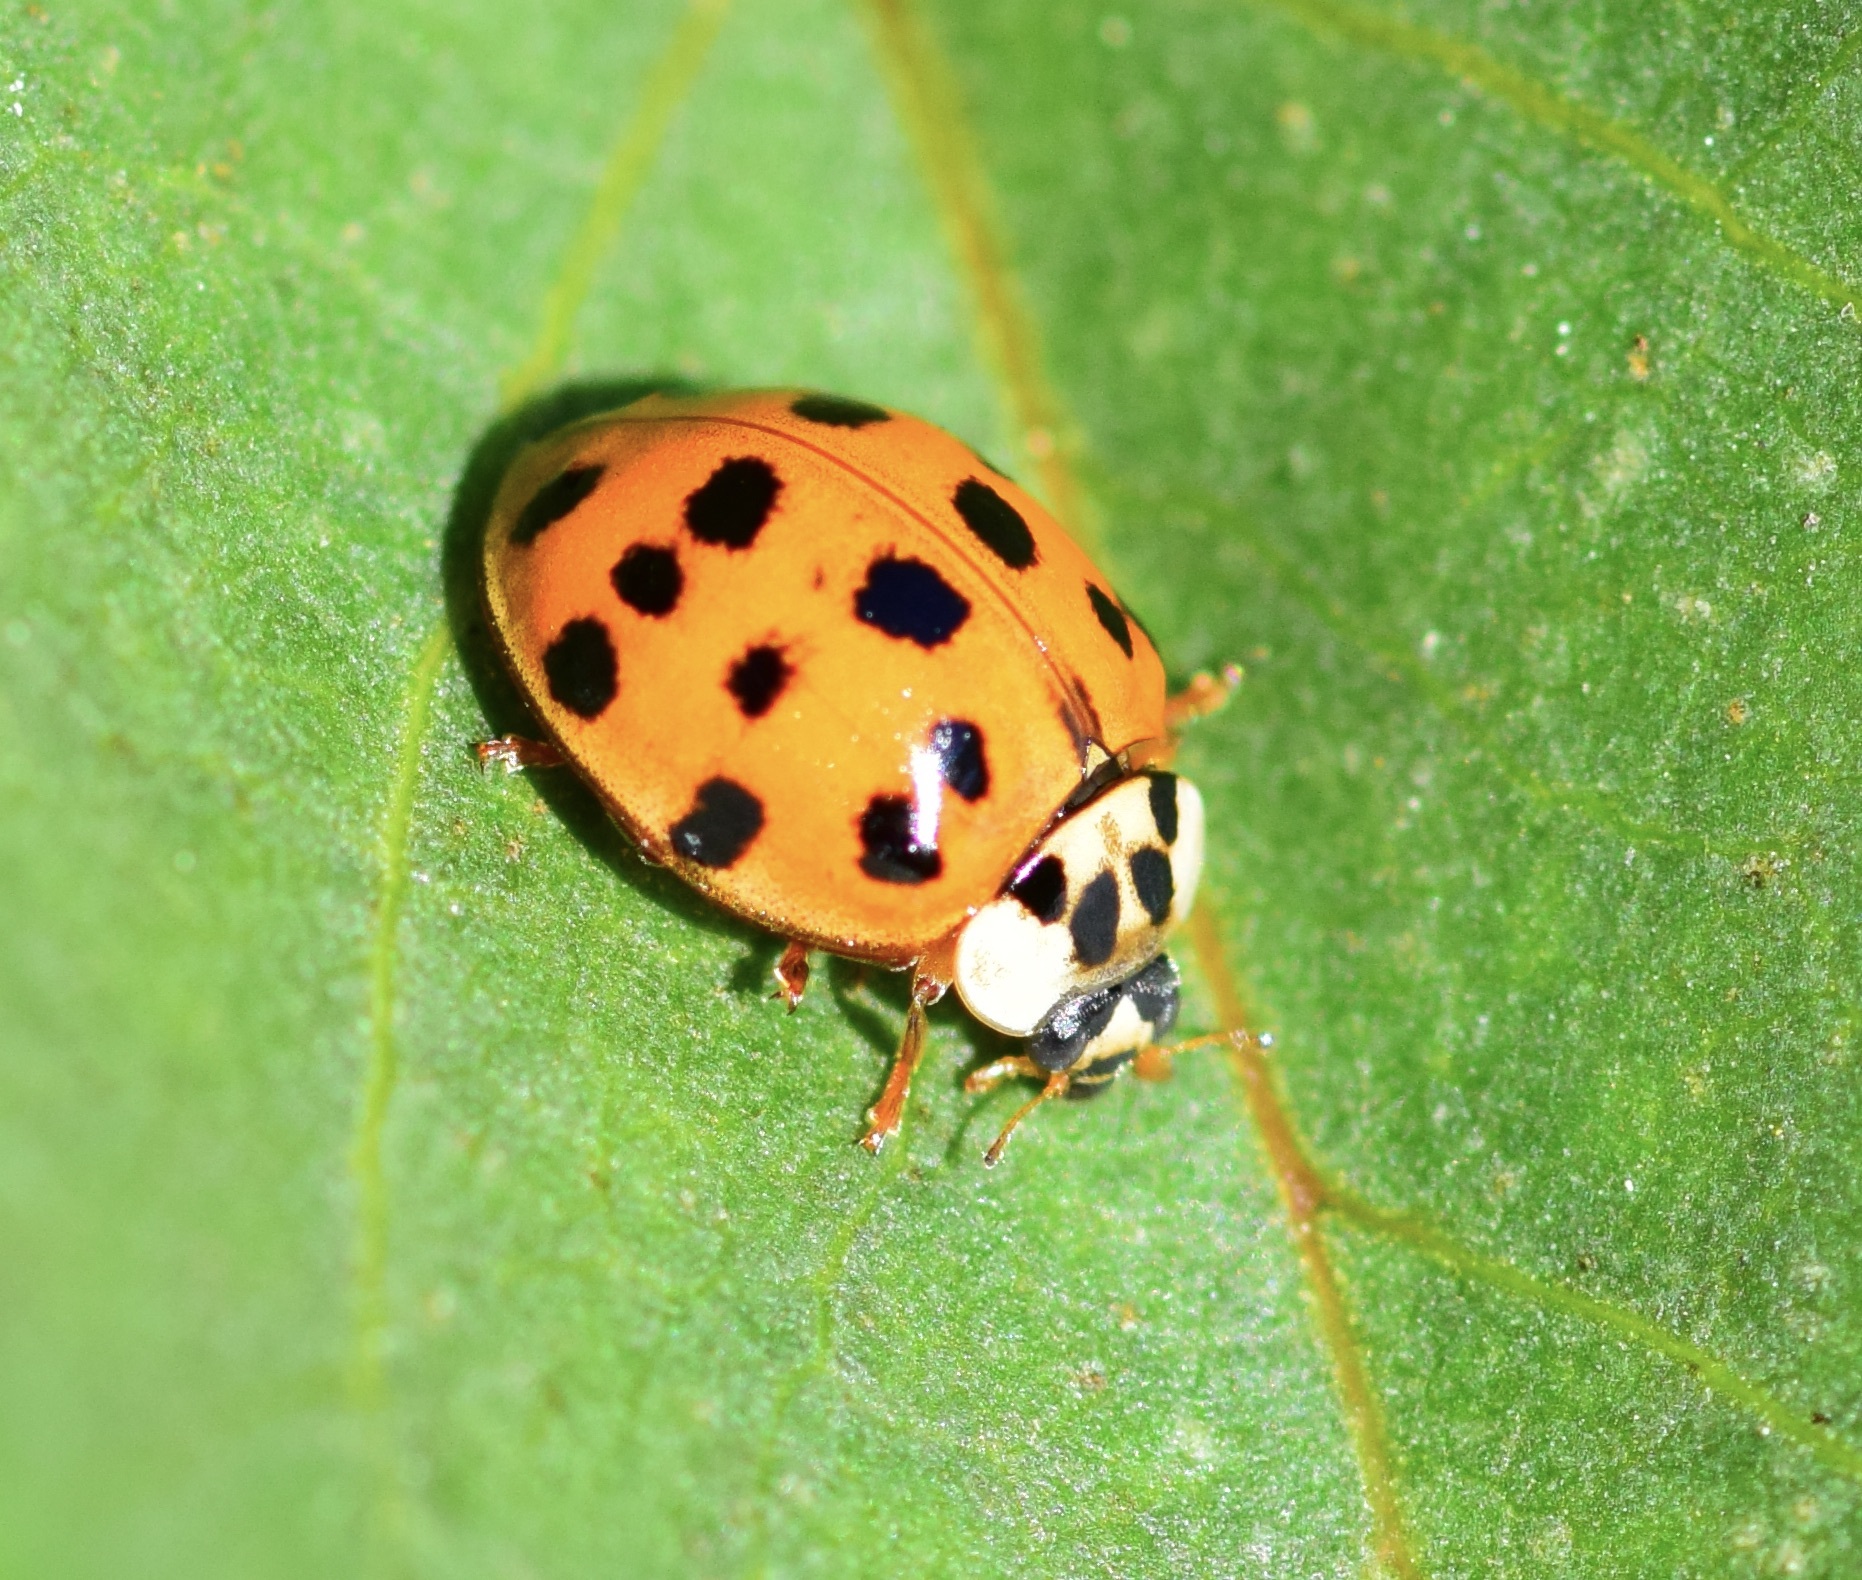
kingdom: Animalia
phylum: Arthropoda
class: Insecta
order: Coleoptera
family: Coccinellidae
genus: Harmonia
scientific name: Harmonia axyridis
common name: Harlequin ladybird
